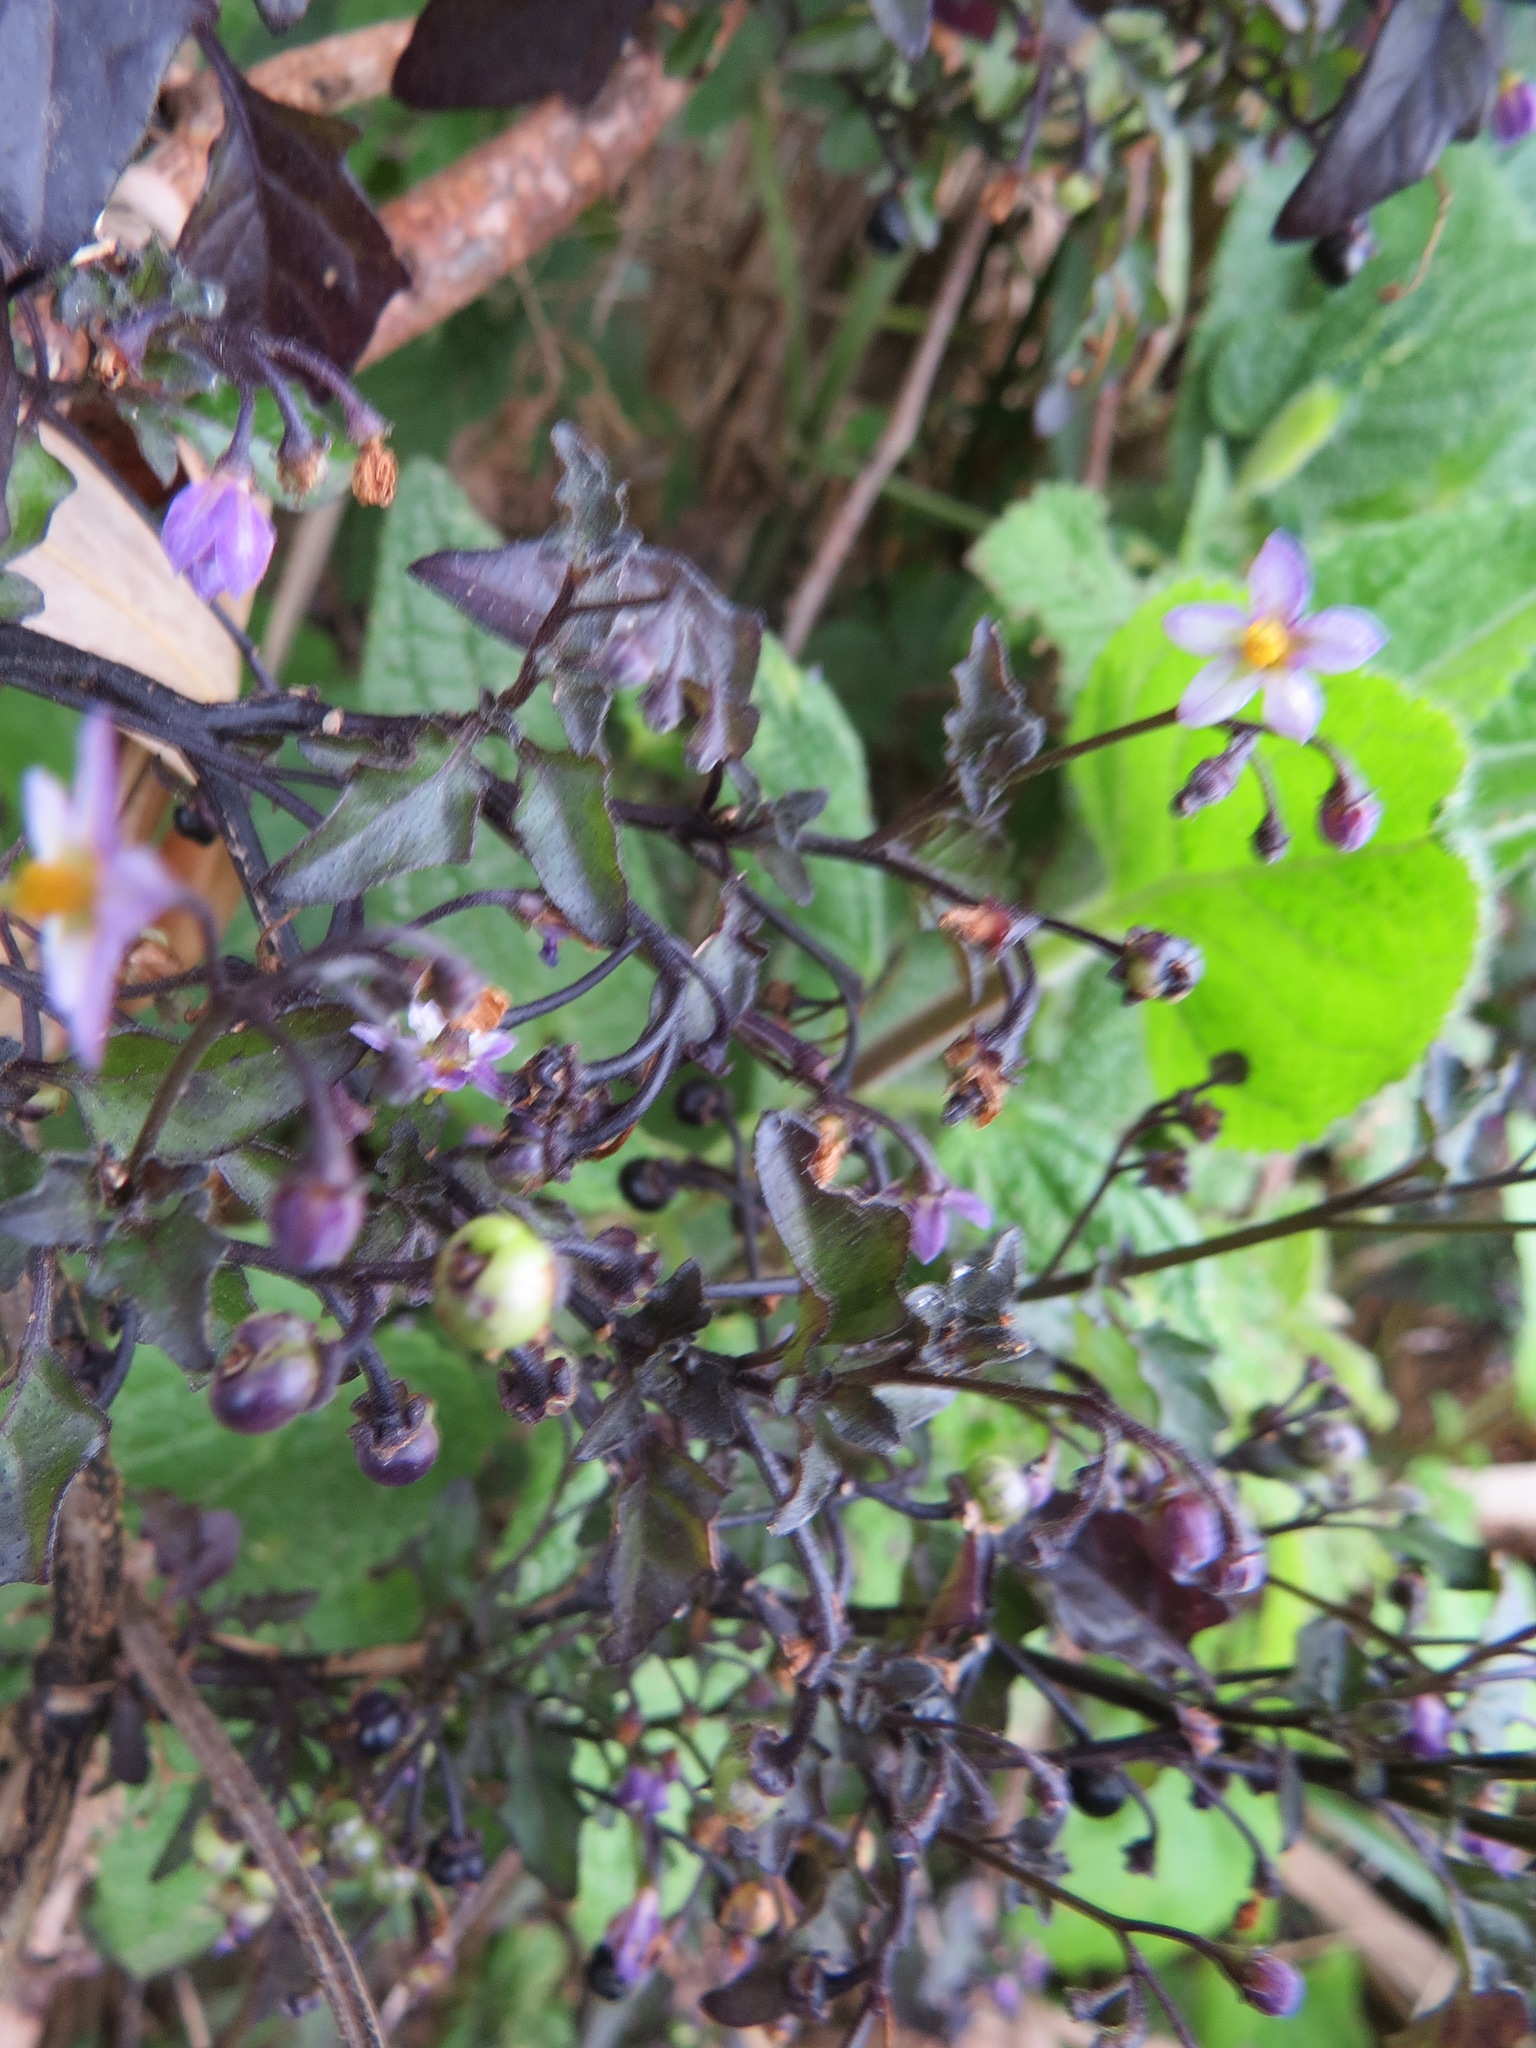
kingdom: Plantae
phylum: Tracheophyta
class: Magnoliopsida
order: Solanales
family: Solanaceae
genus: Solanum
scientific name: Solanum nigrum
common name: Black nightshade
